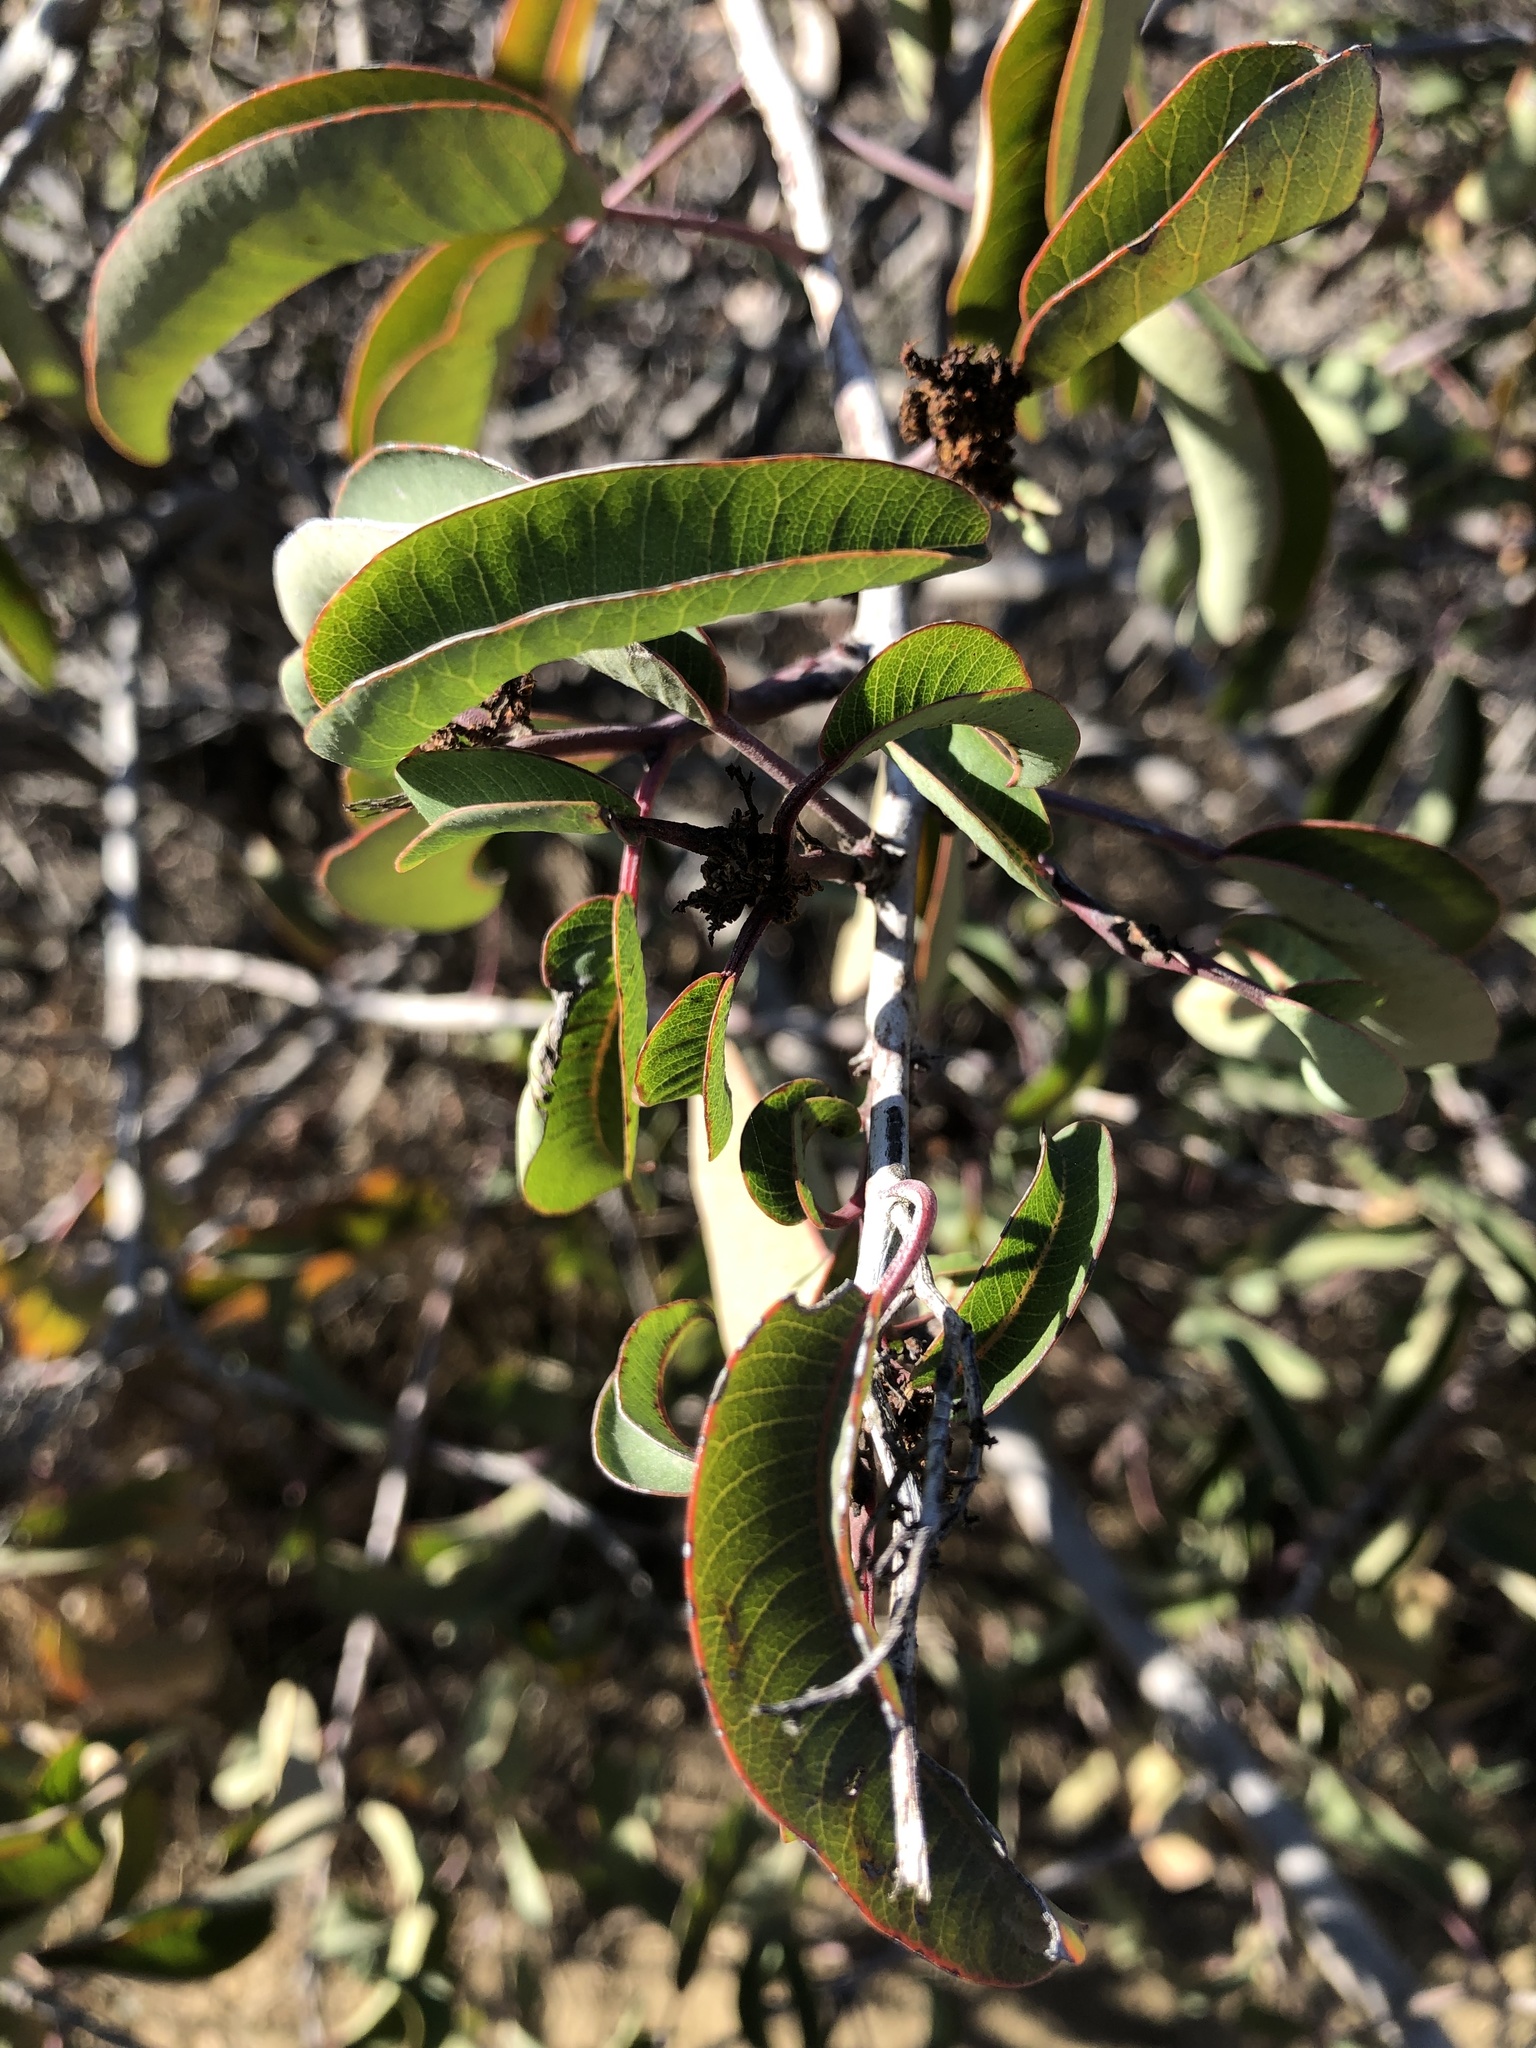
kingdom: Plantae
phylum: Tracheophyta
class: Magnoliopsida
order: Sapindales
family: Anacardiaceae
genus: Malosma
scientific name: Malosma laurina
